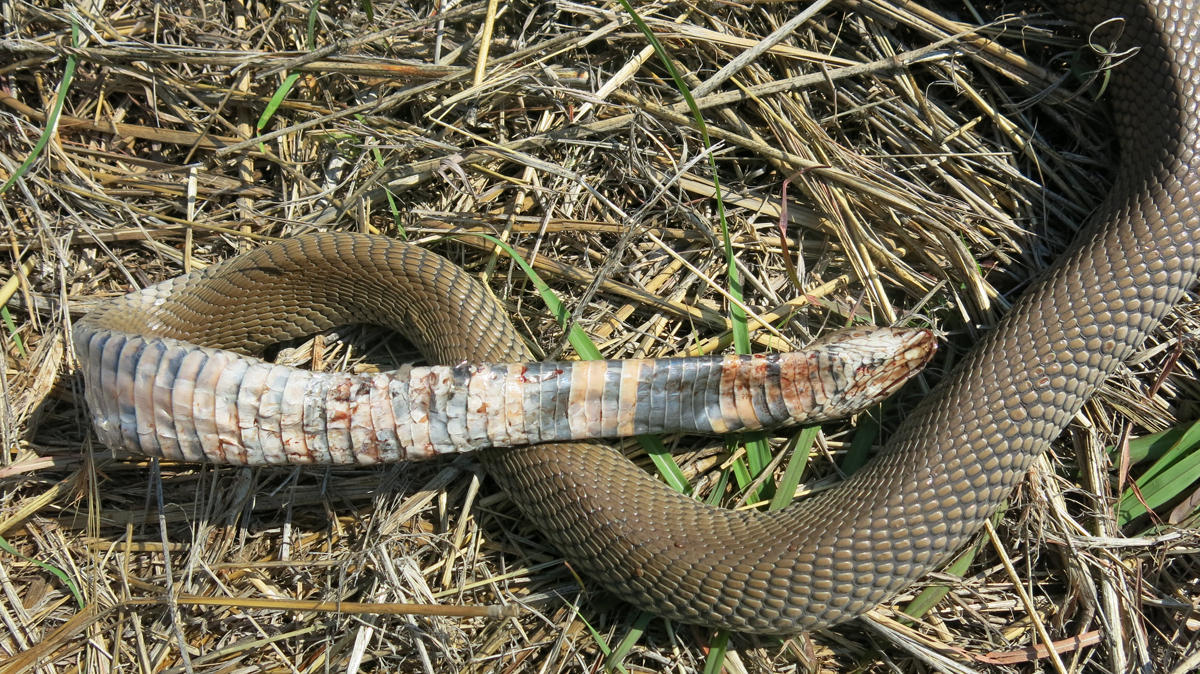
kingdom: Animalia
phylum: Chordata
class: Squamata
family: Elapidae
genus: Naja
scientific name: Naja mossambica
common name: Mozambique spitting cobra
